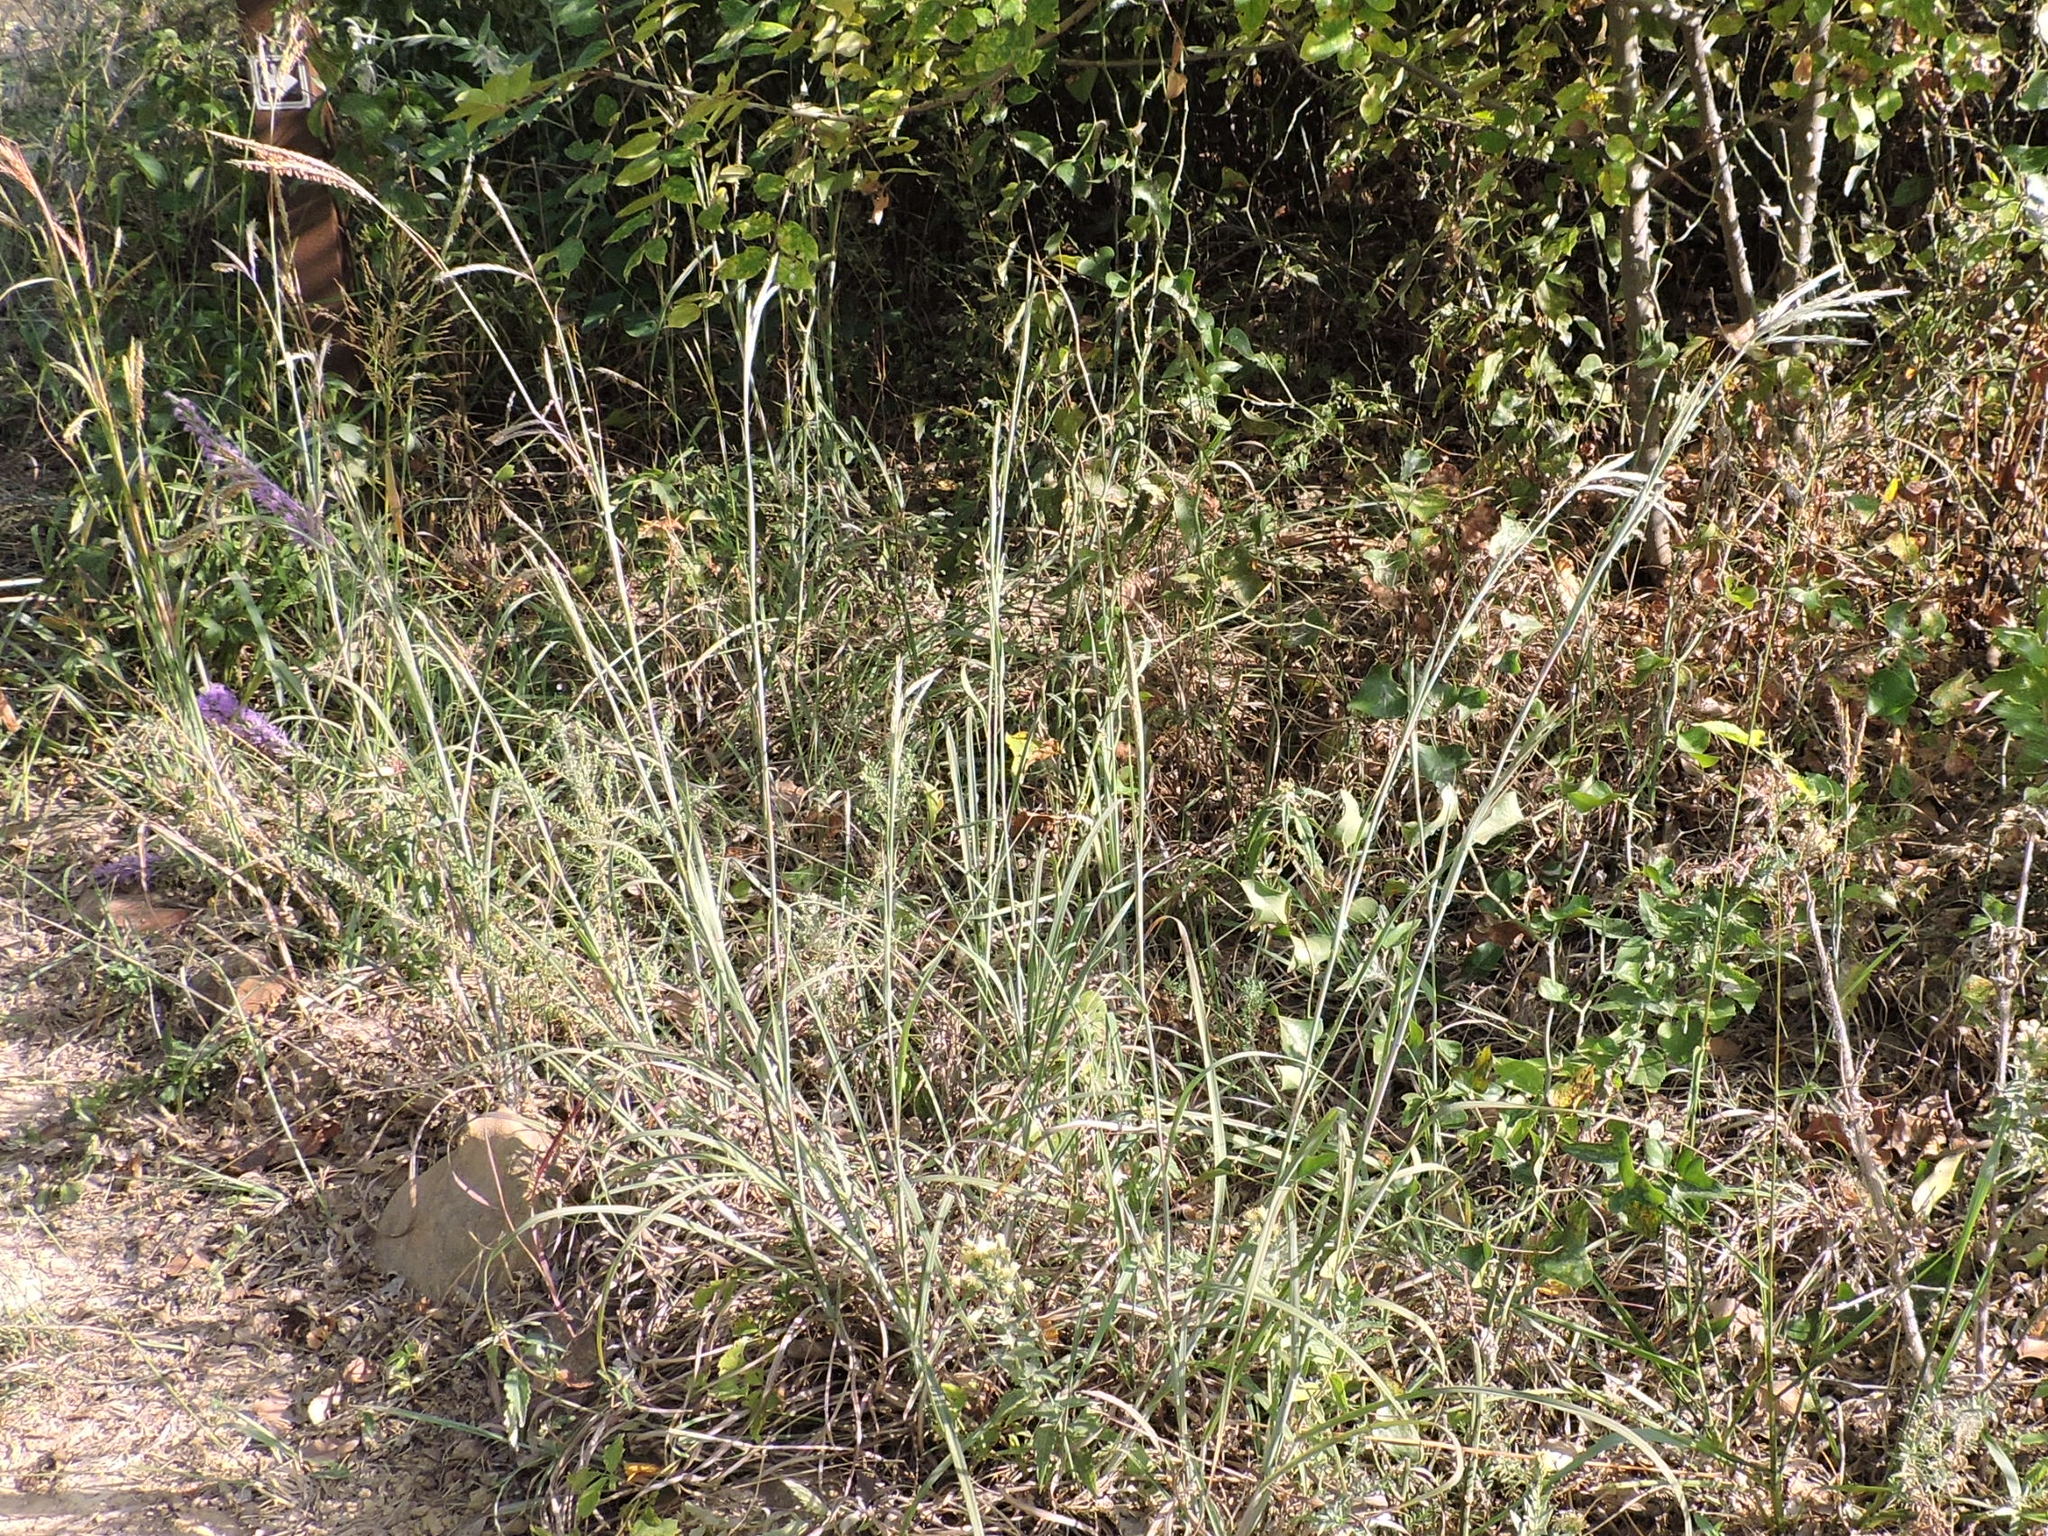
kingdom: Plantae
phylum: Tracheophyta
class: Liliopsida
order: Poales
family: Poaceae
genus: Andropogon
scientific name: Andropogon gerardi
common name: Big bluestem
